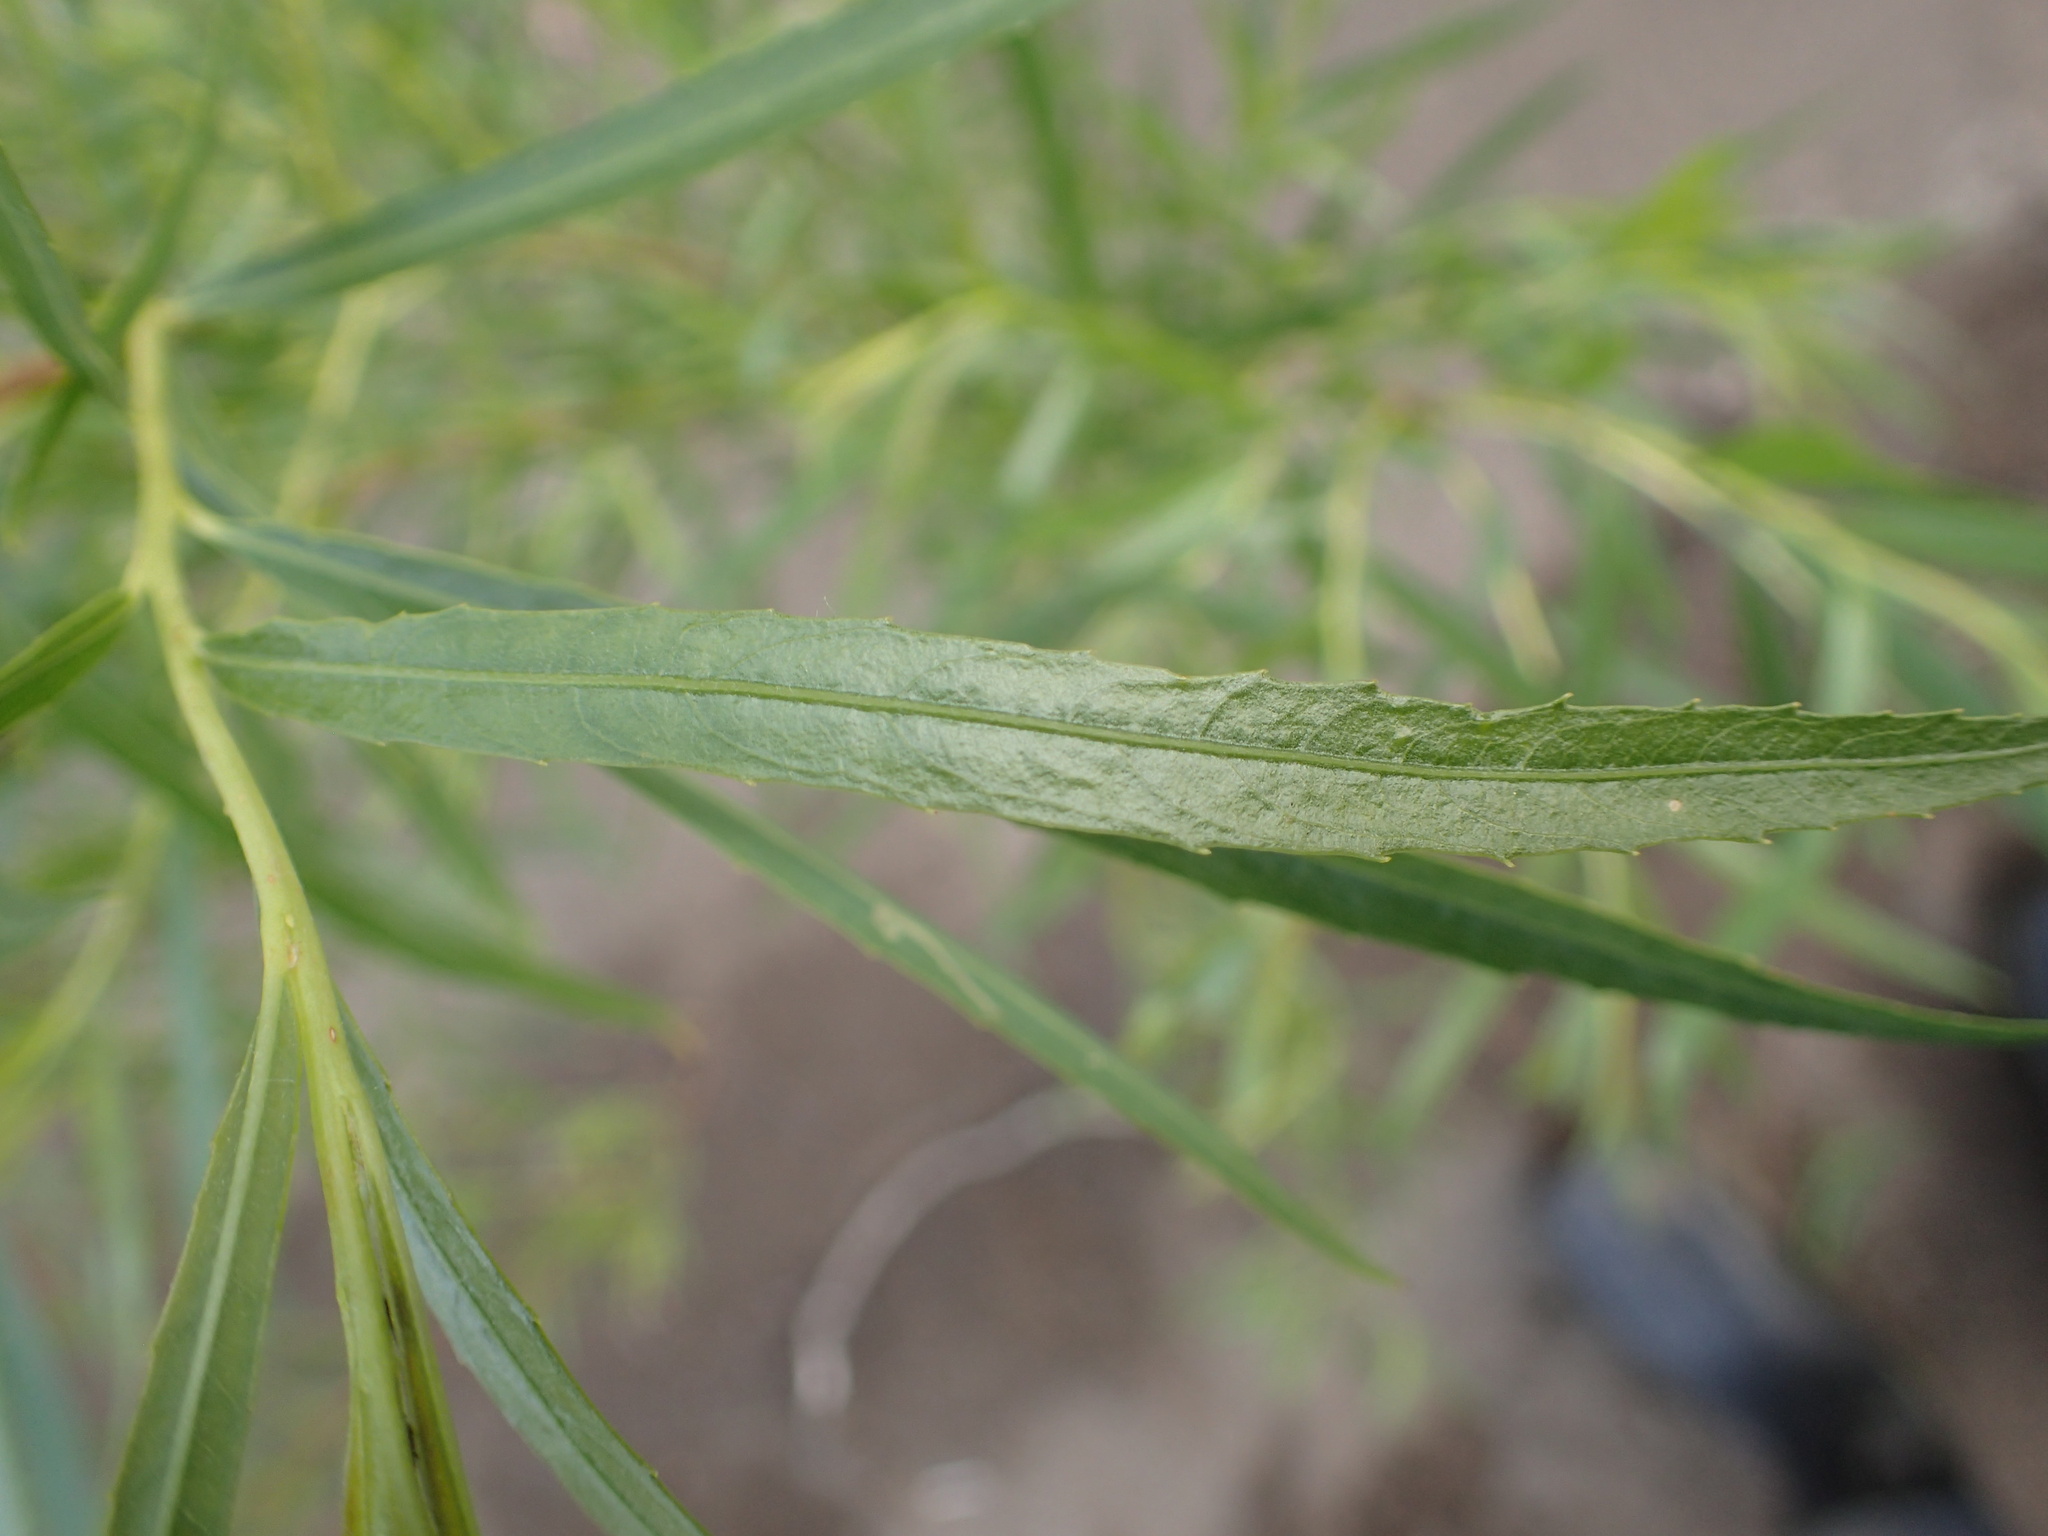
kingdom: Plantae
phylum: Tracheophyta
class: Magnoliopsida
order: Malpighiales
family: Salicaceae
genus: Salix
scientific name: Salix interior
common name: Sandbar willow
